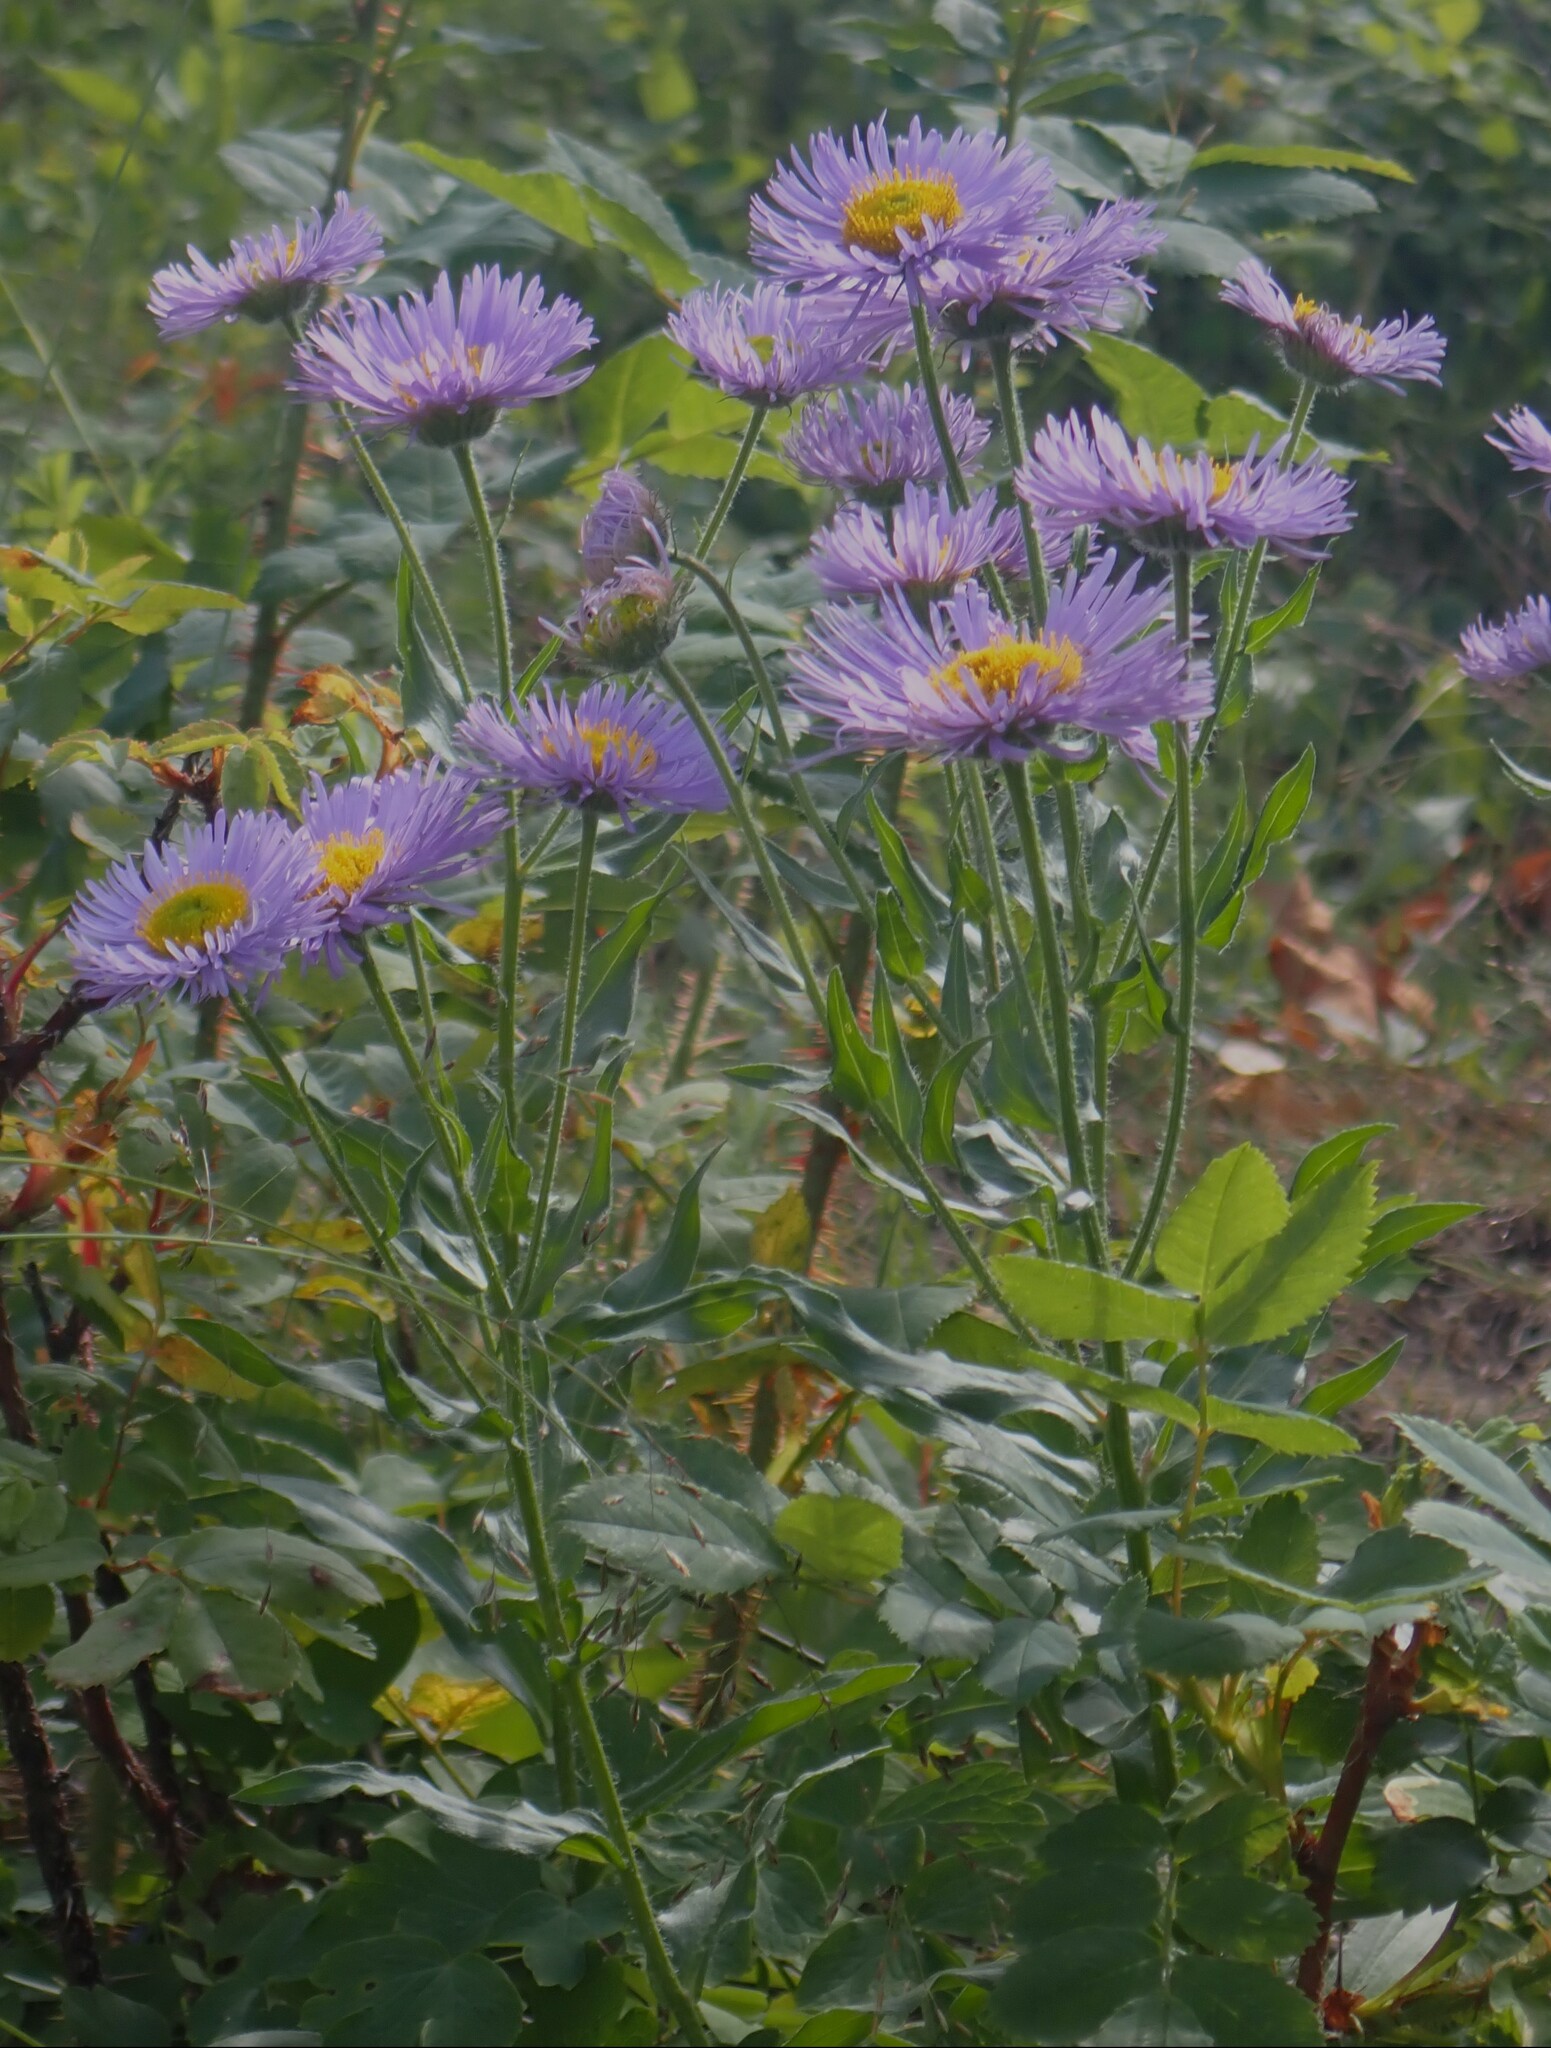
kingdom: Plantae
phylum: Tracheophyta
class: Magnoliopsida
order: Asterales
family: Asteraceae
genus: Erigeron
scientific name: Erigeron speciosus
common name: Aspen fleabane
